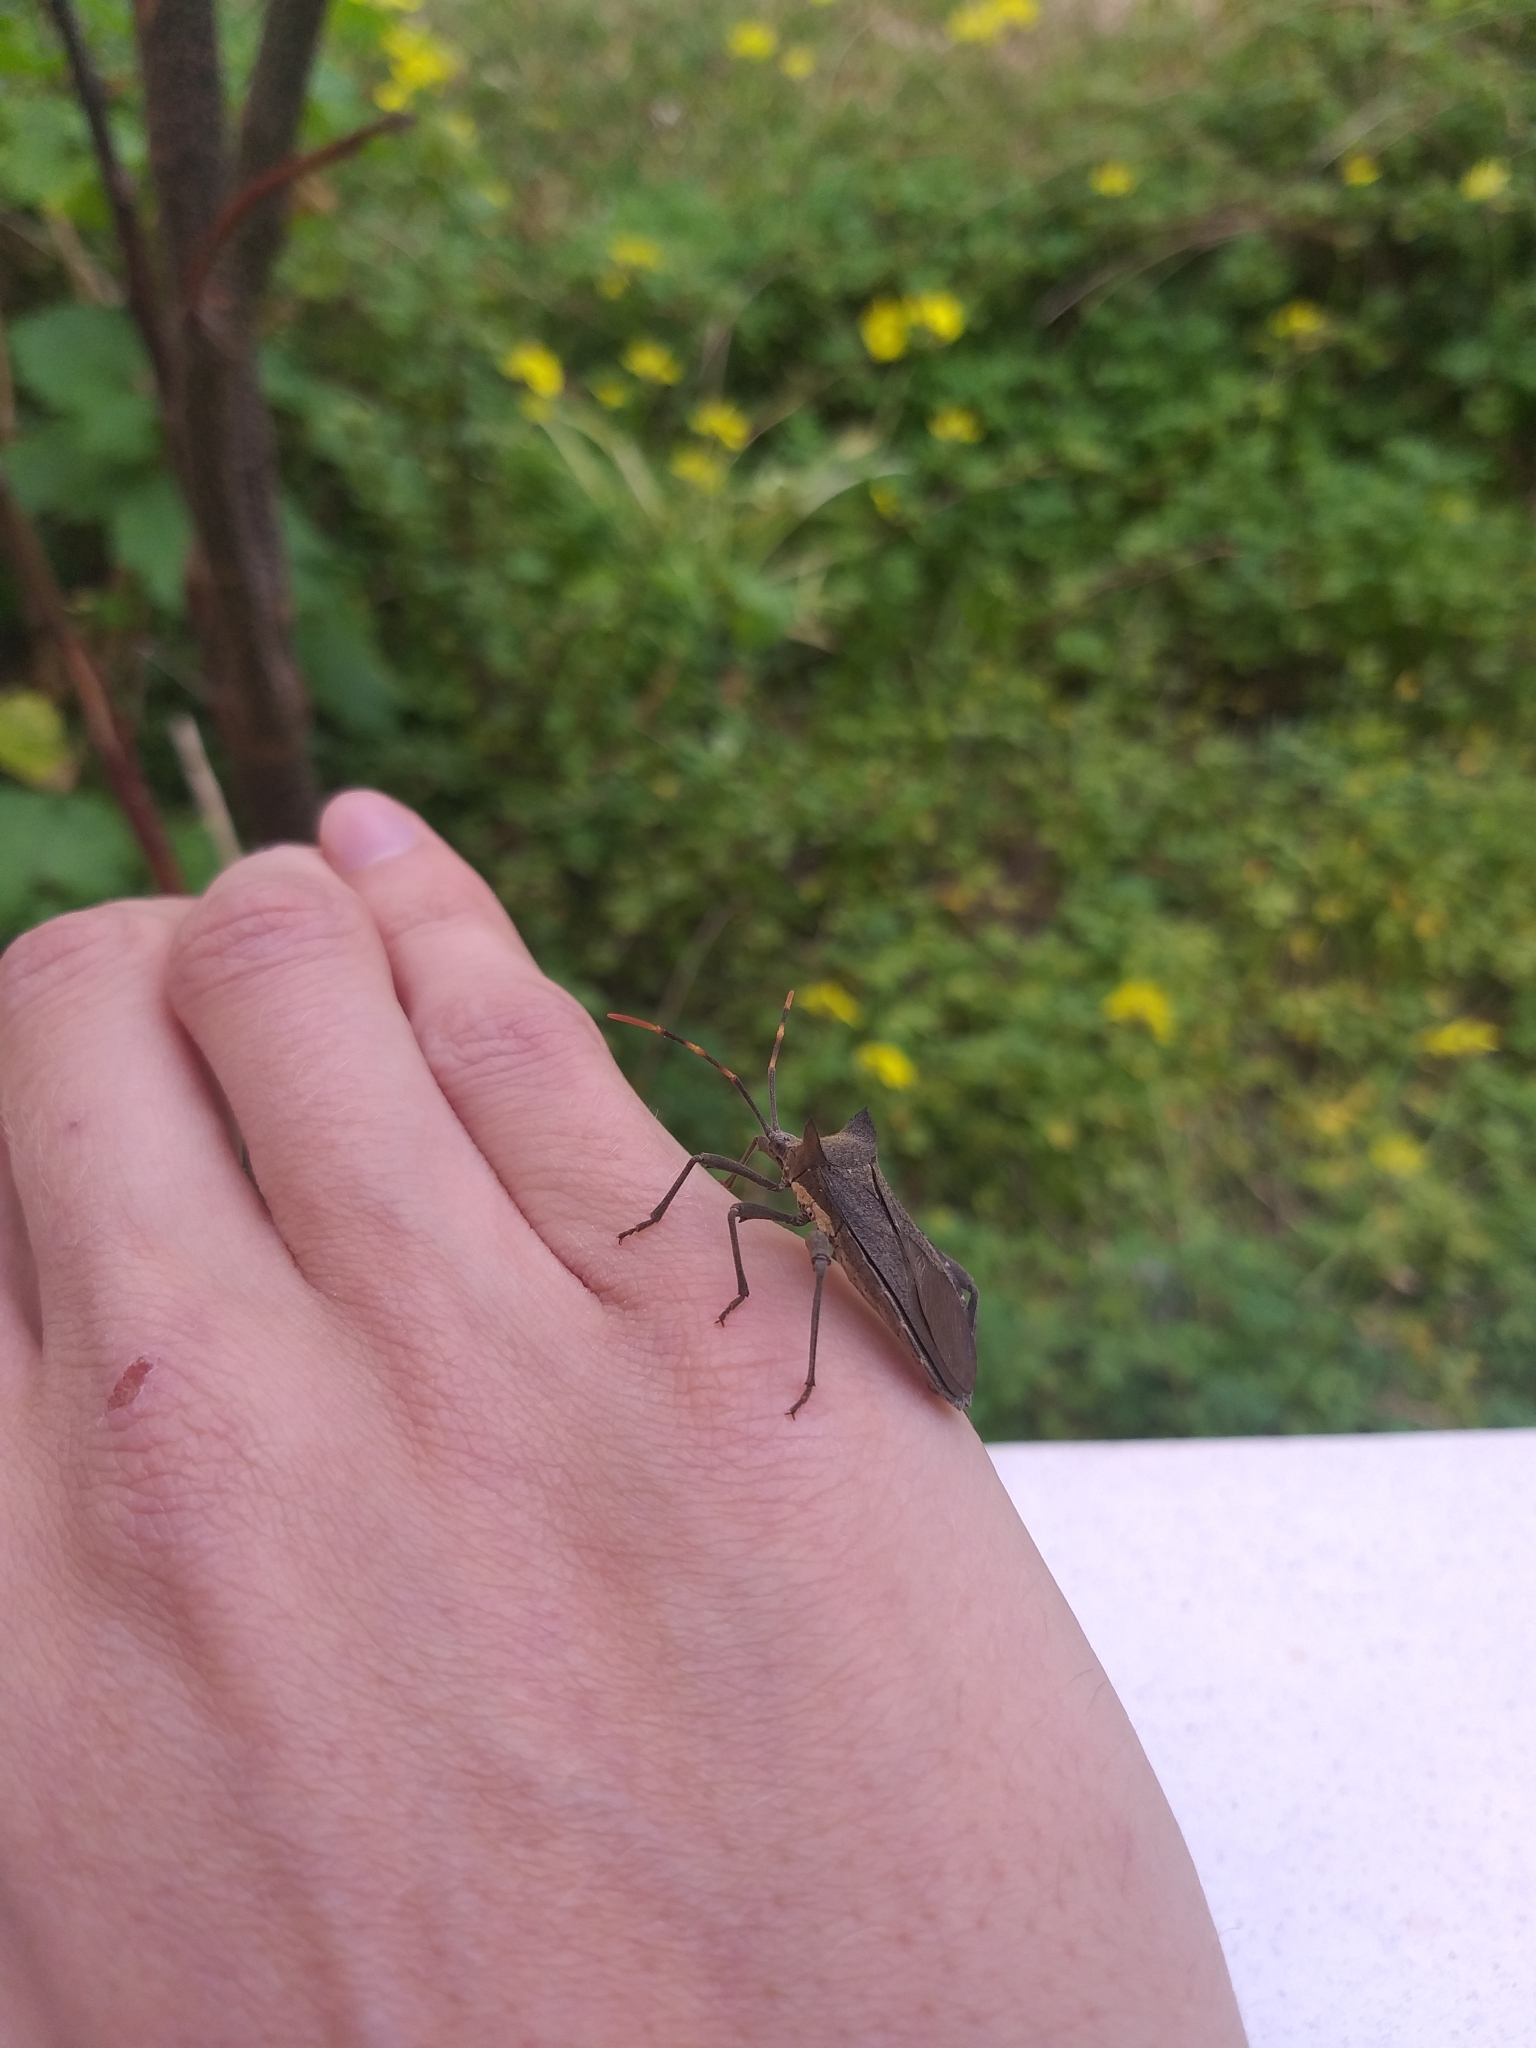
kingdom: Animalia
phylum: Arthropoda
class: Insecta
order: Hemiptera
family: Coreidae
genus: Elasmopoda
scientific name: Elasmopoda valga
